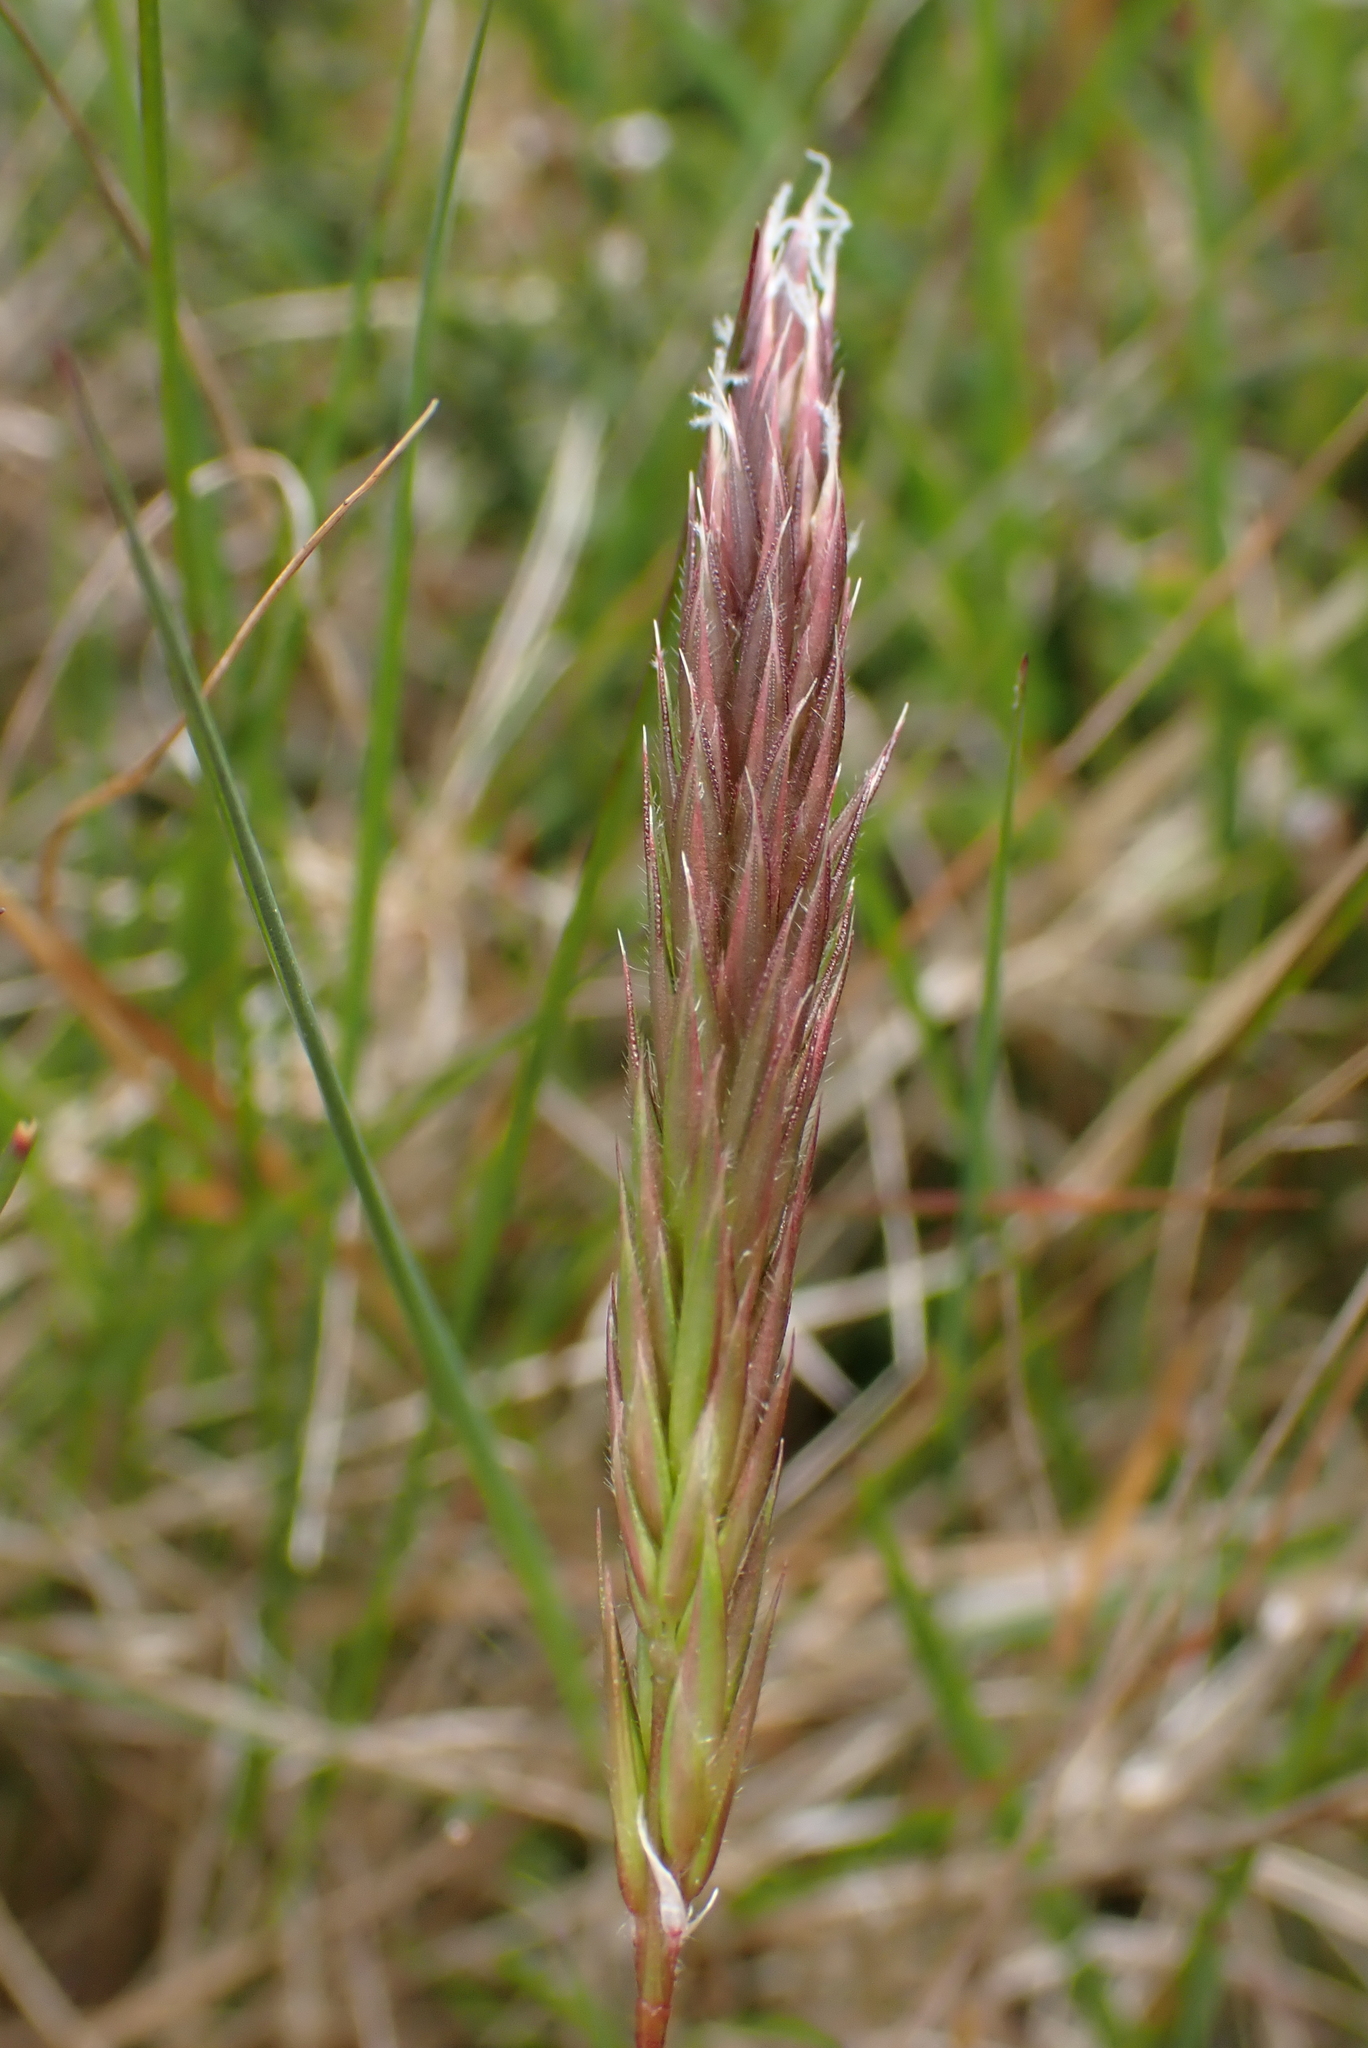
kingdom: Plantae
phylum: Tracheophyta
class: Liliopsida
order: Poales
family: Poaceae
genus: Anthoxanthum
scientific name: Anthoxanthum odoratum
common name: Sweet vernalgrass
